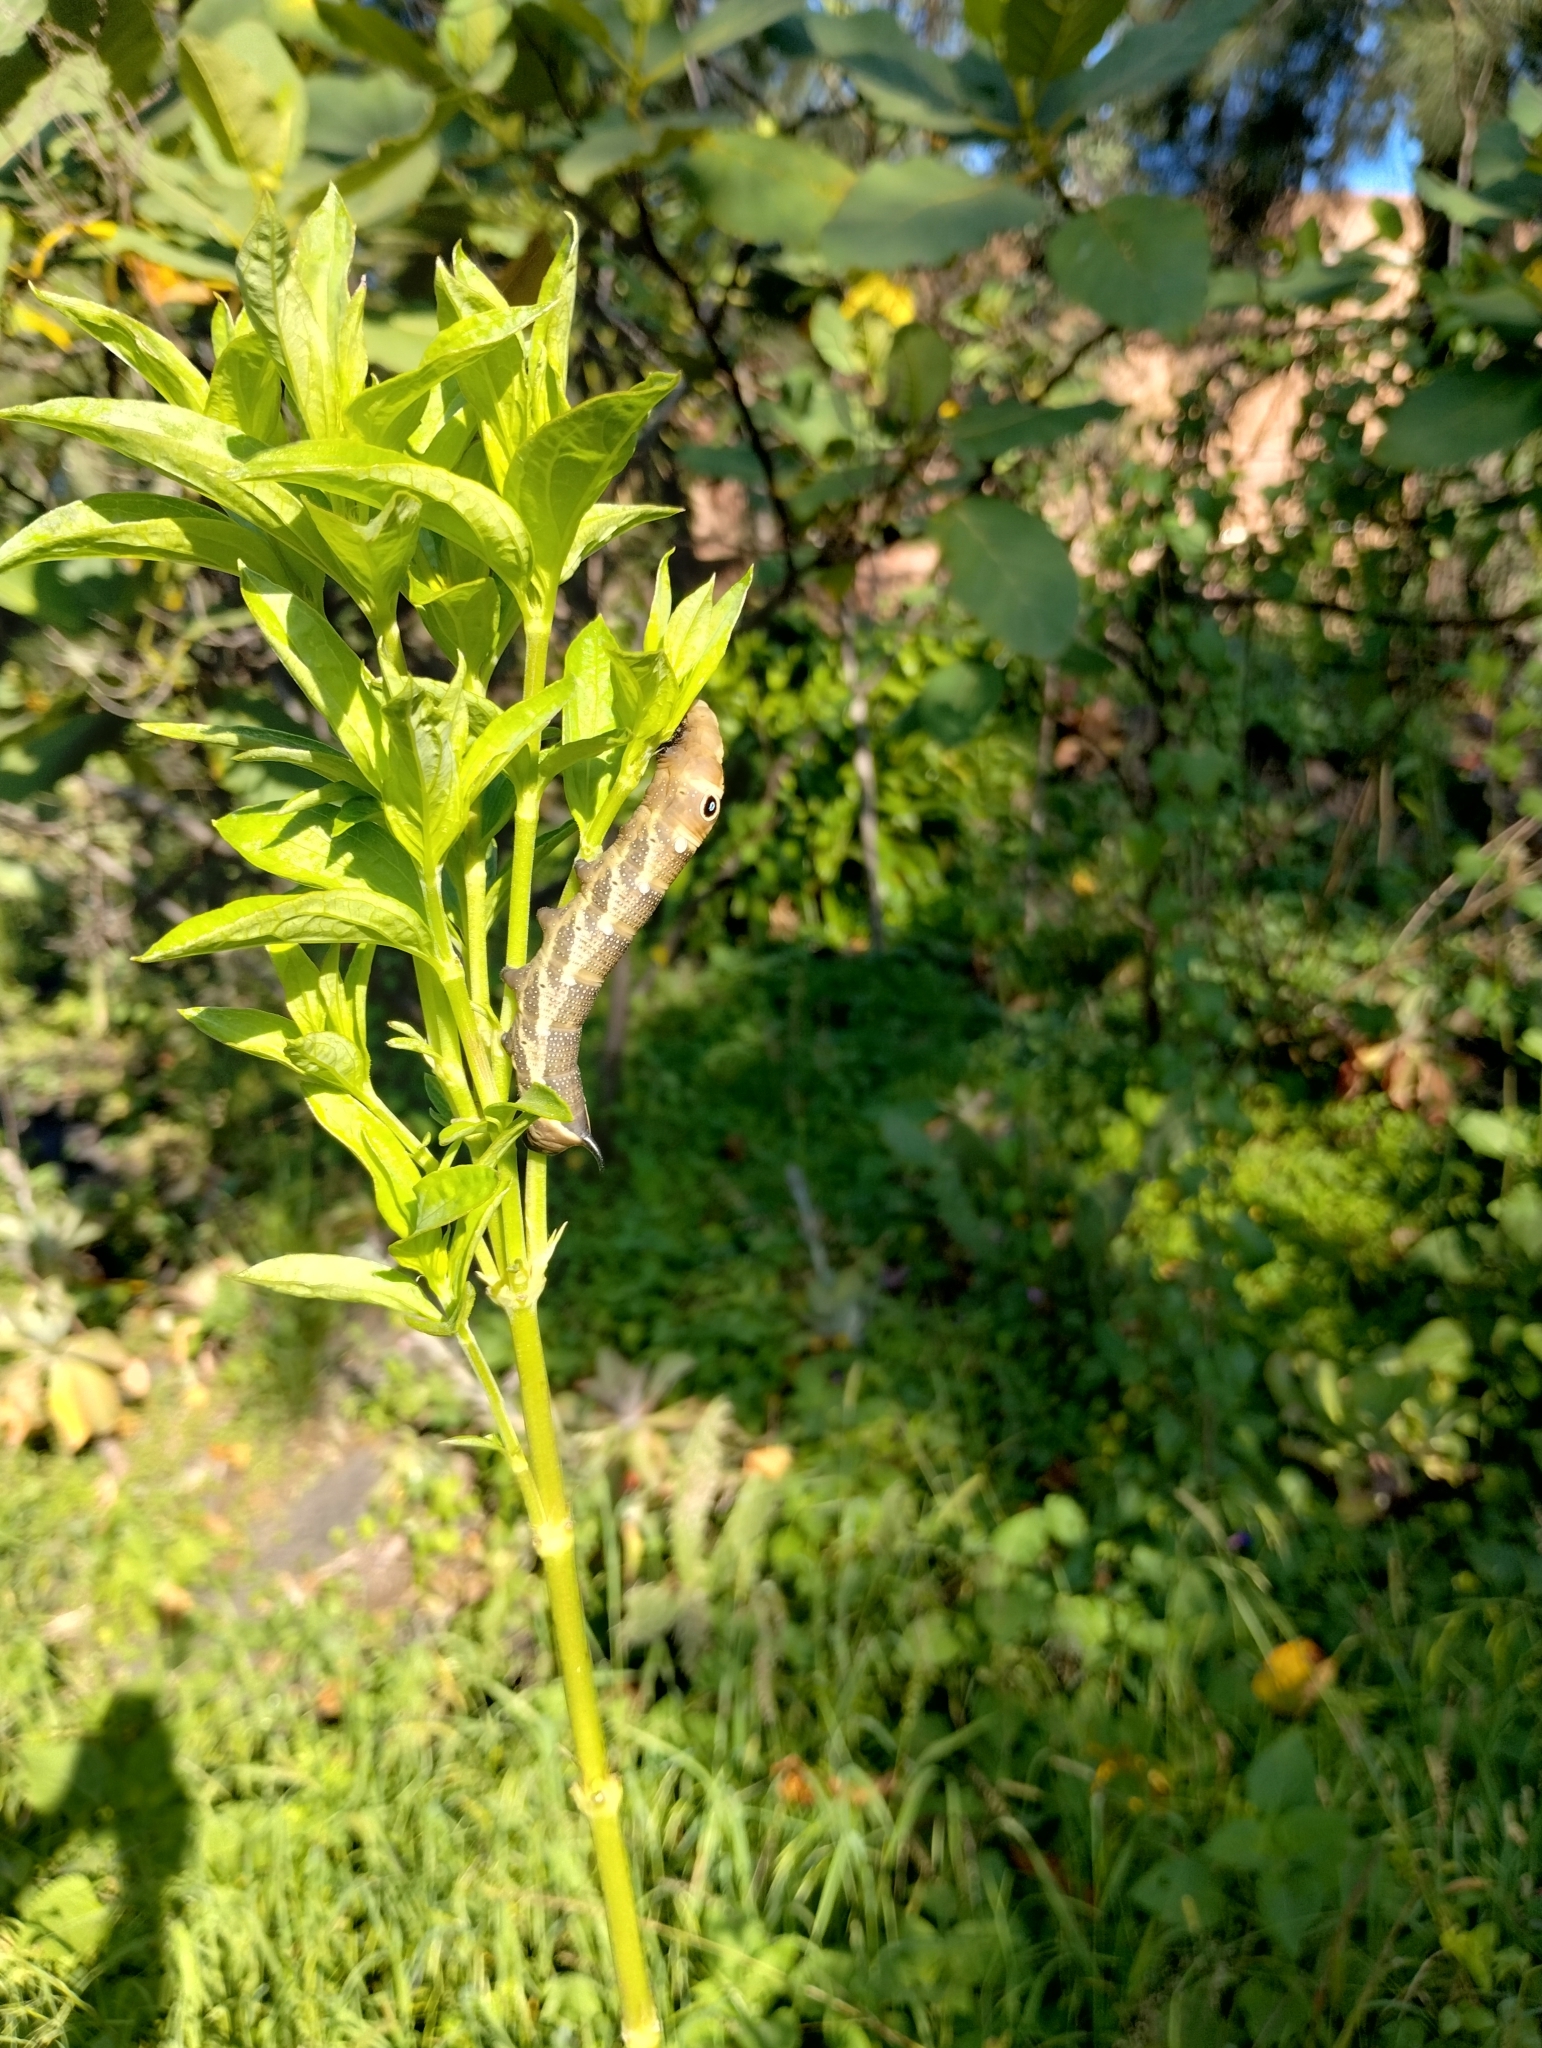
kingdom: Animalia
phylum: Arthropoda
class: Insecta
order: Lepidoptera
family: Sphingidae
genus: Xylophanes
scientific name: Xylophanes falco
